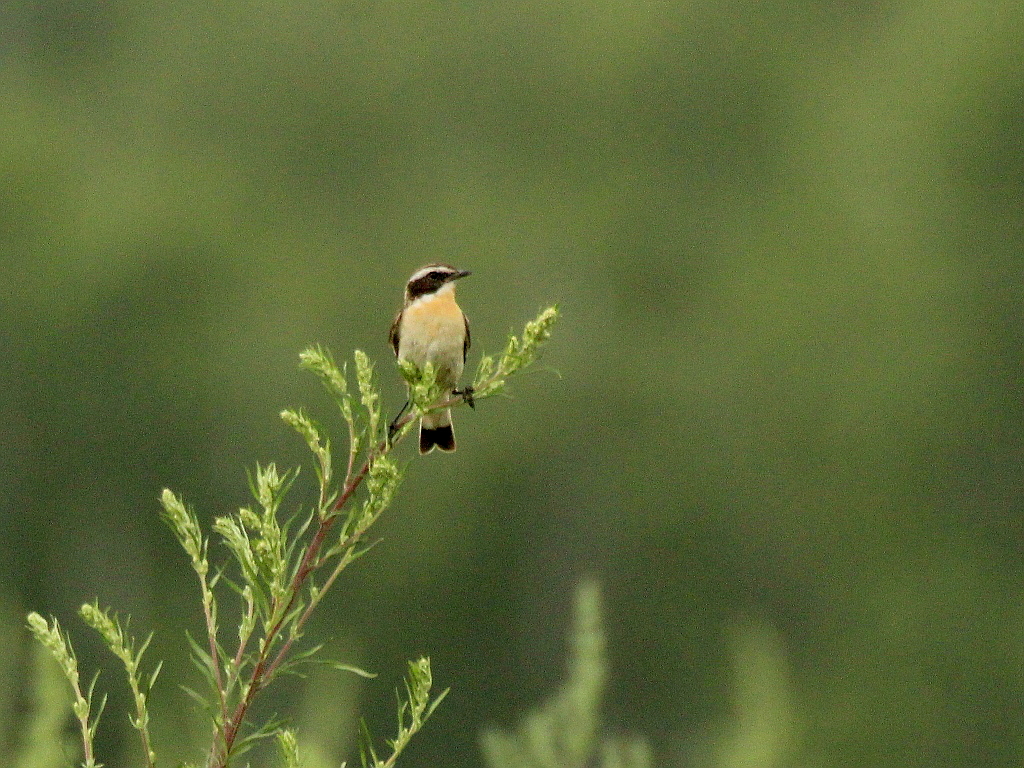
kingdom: Animalia
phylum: Chordata
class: Aves
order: Passeriformes
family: Muscicapidae
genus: Saxicola
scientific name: Saxicola rubetra
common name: Whinchat
